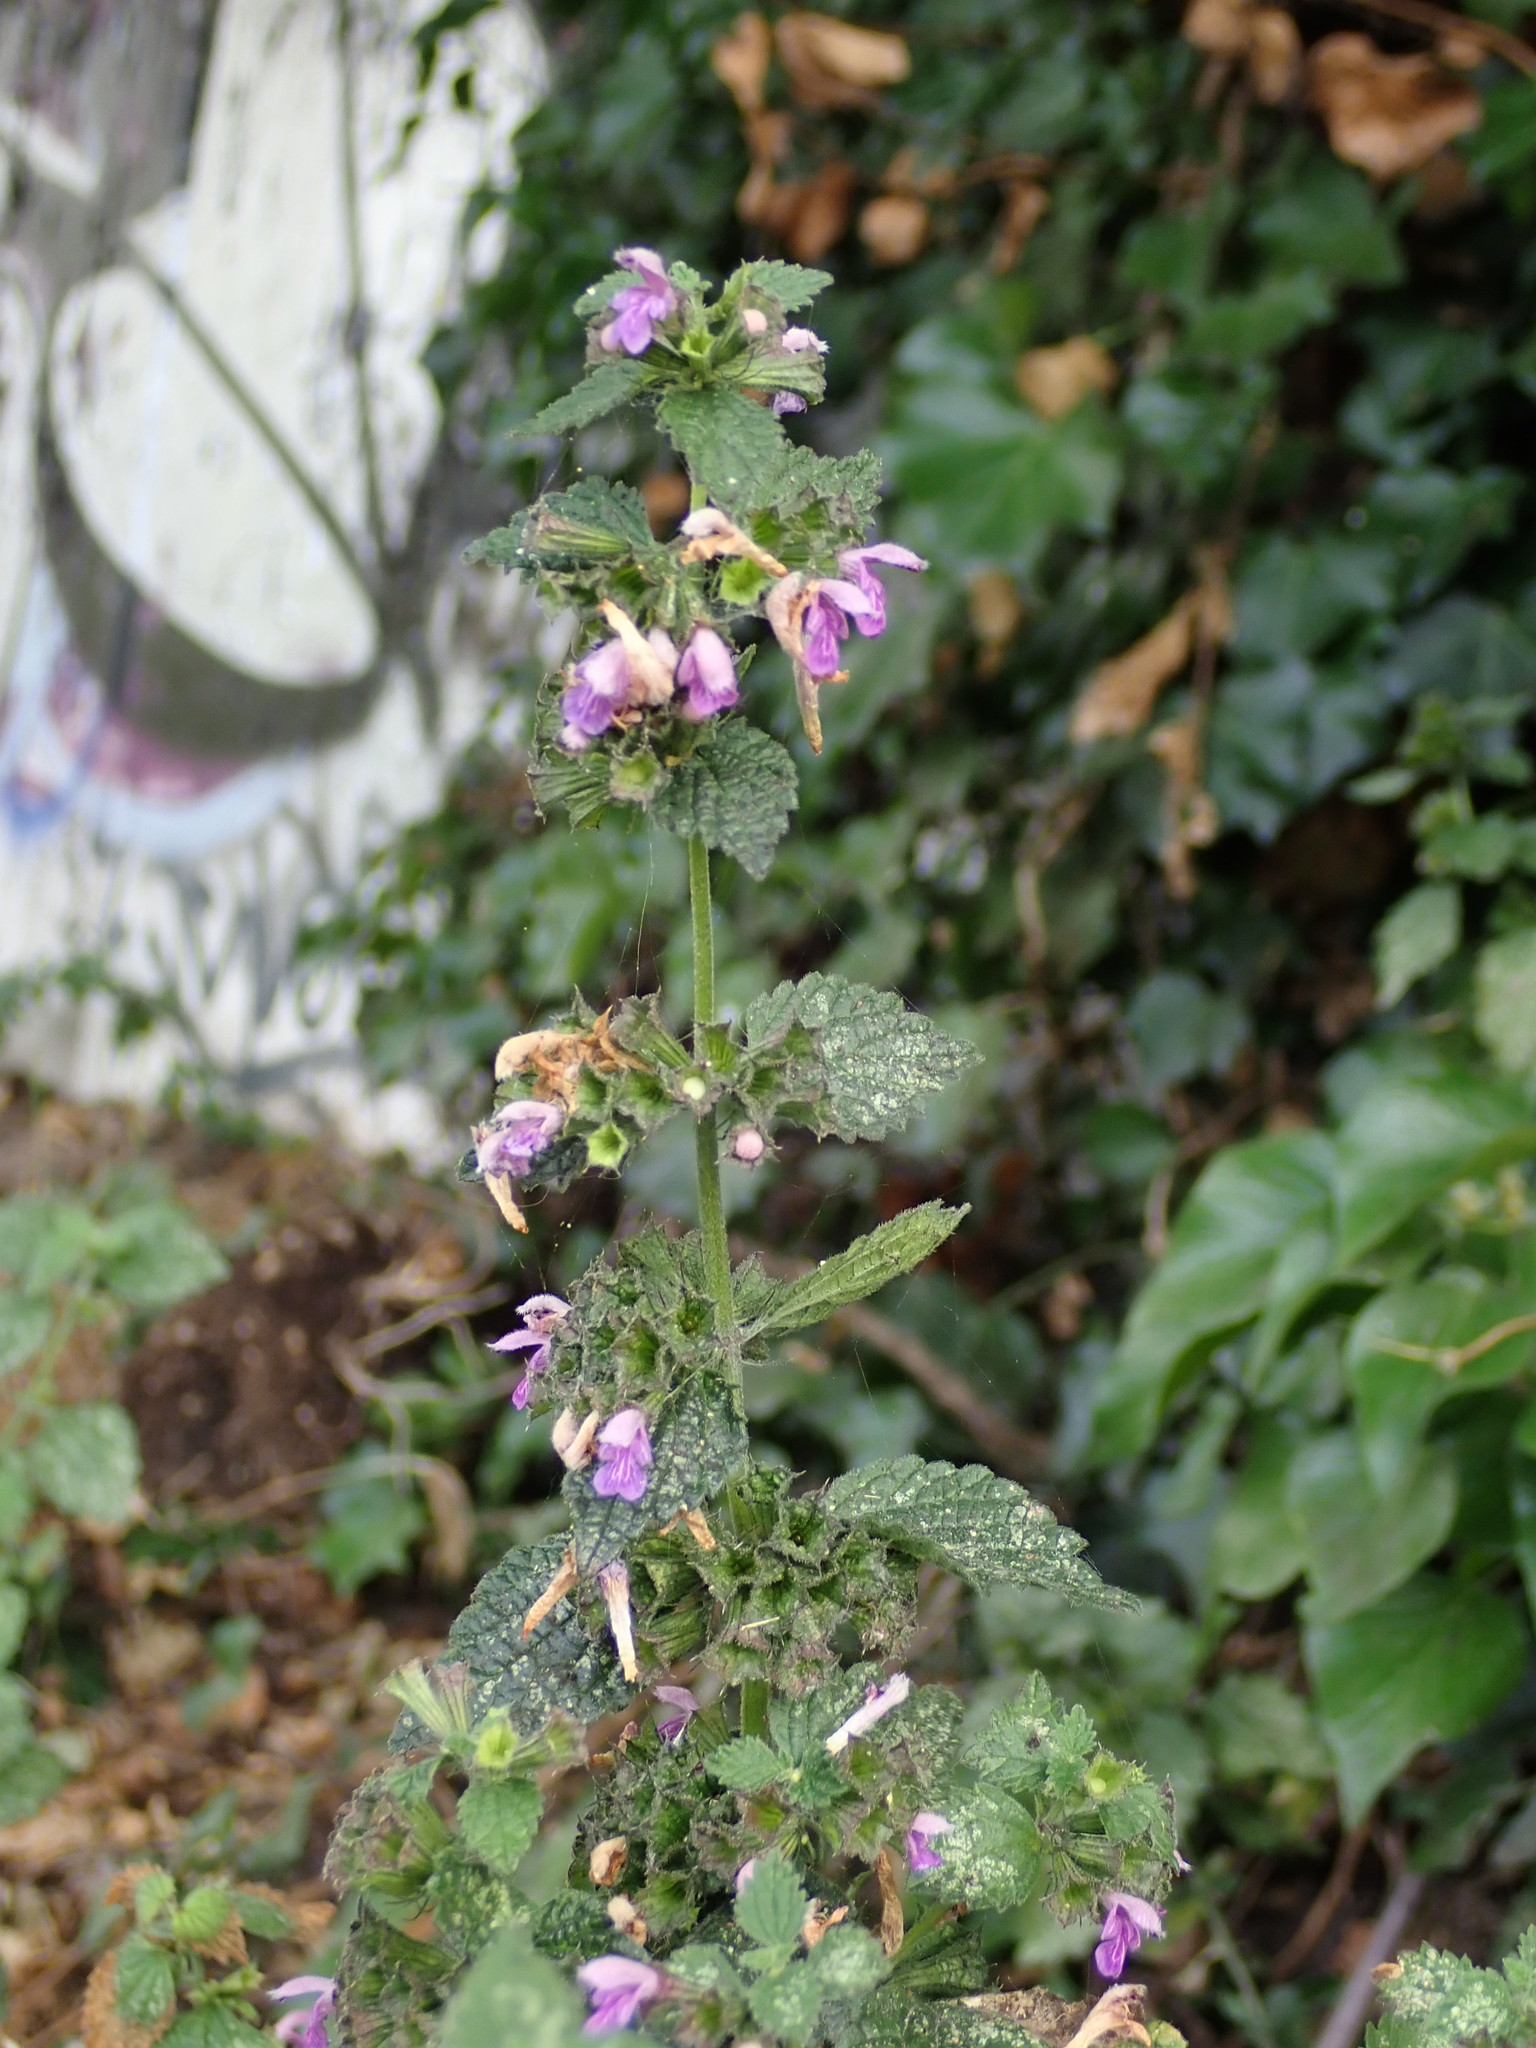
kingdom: Plantae
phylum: Tracheophyta
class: Magnoliopsida
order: Lamiales
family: Lamiaceae
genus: Ballota
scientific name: Ballota nigra
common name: Black horehound
